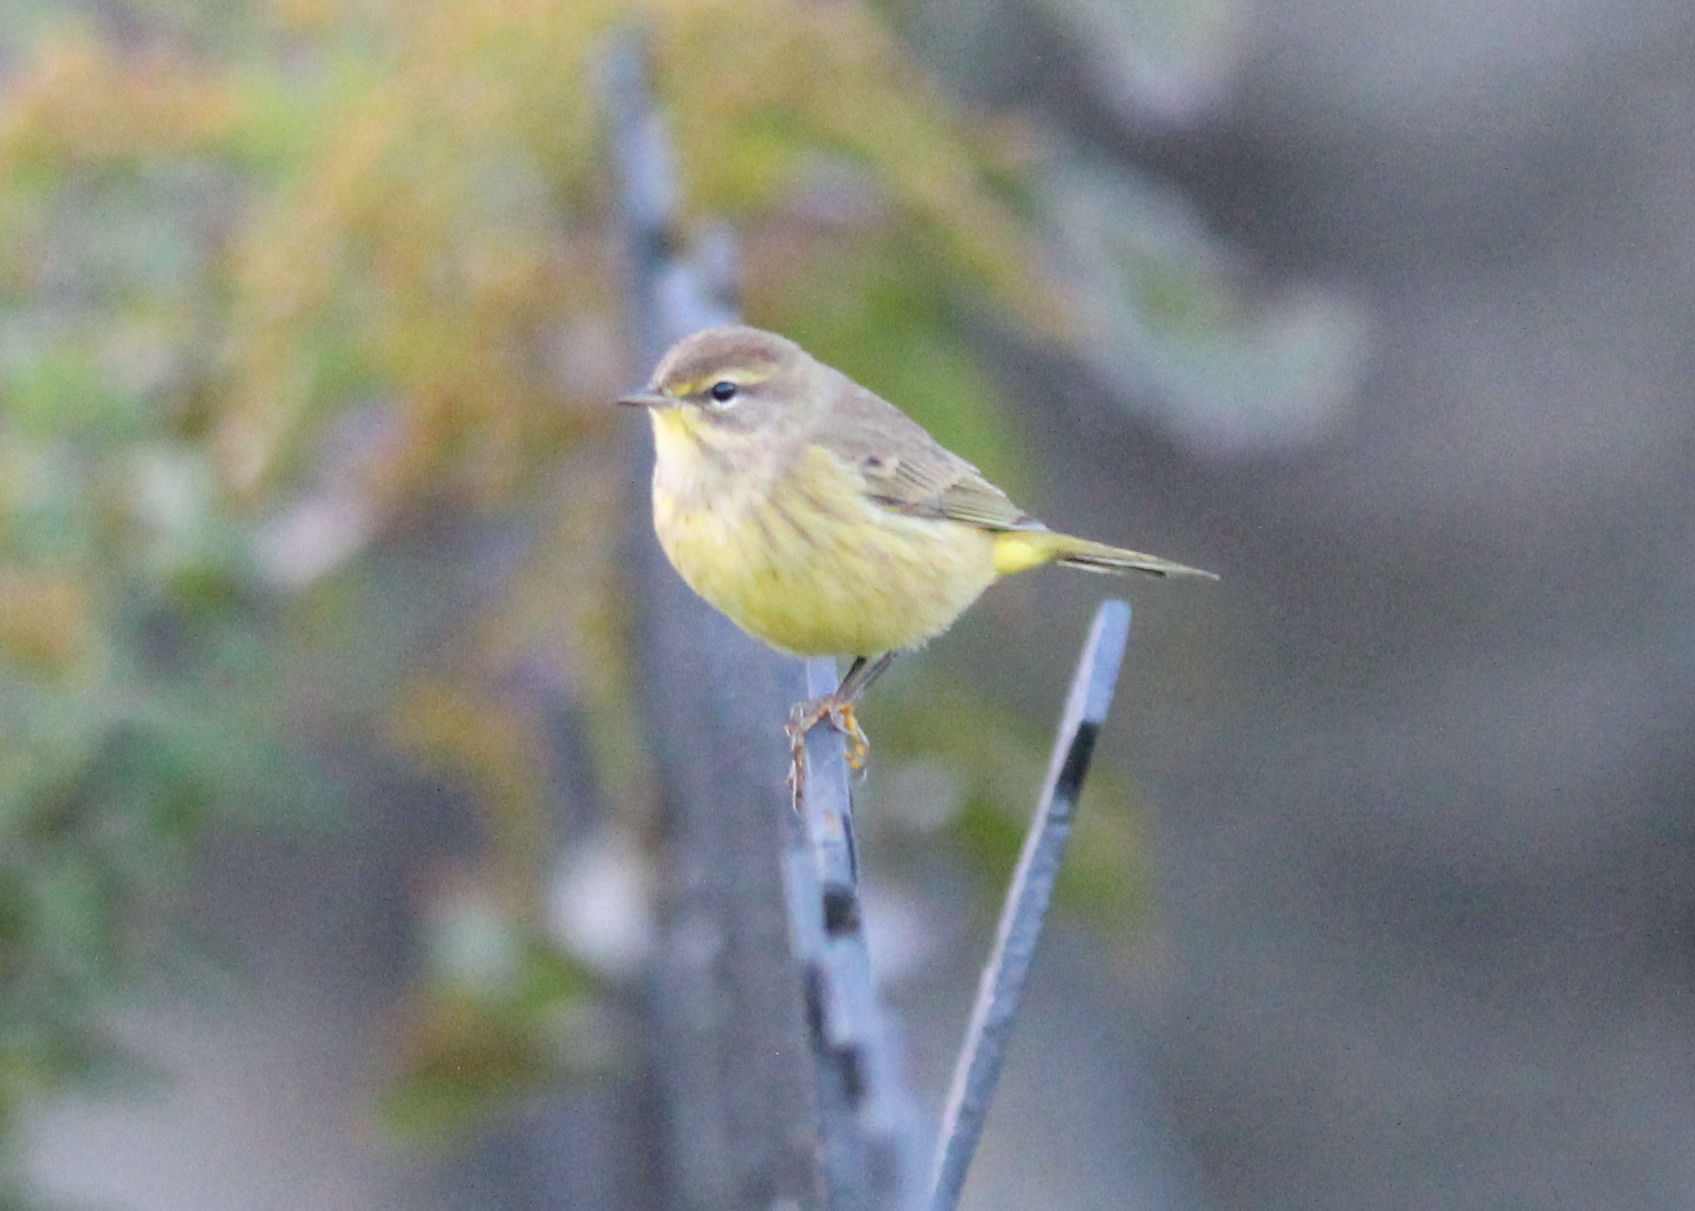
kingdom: Animalia
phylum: Chordata
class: Aves
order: Passeriformes
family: Parulidae
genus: Setophaga
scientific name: Setophaga palmarum
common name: Palm warbler
